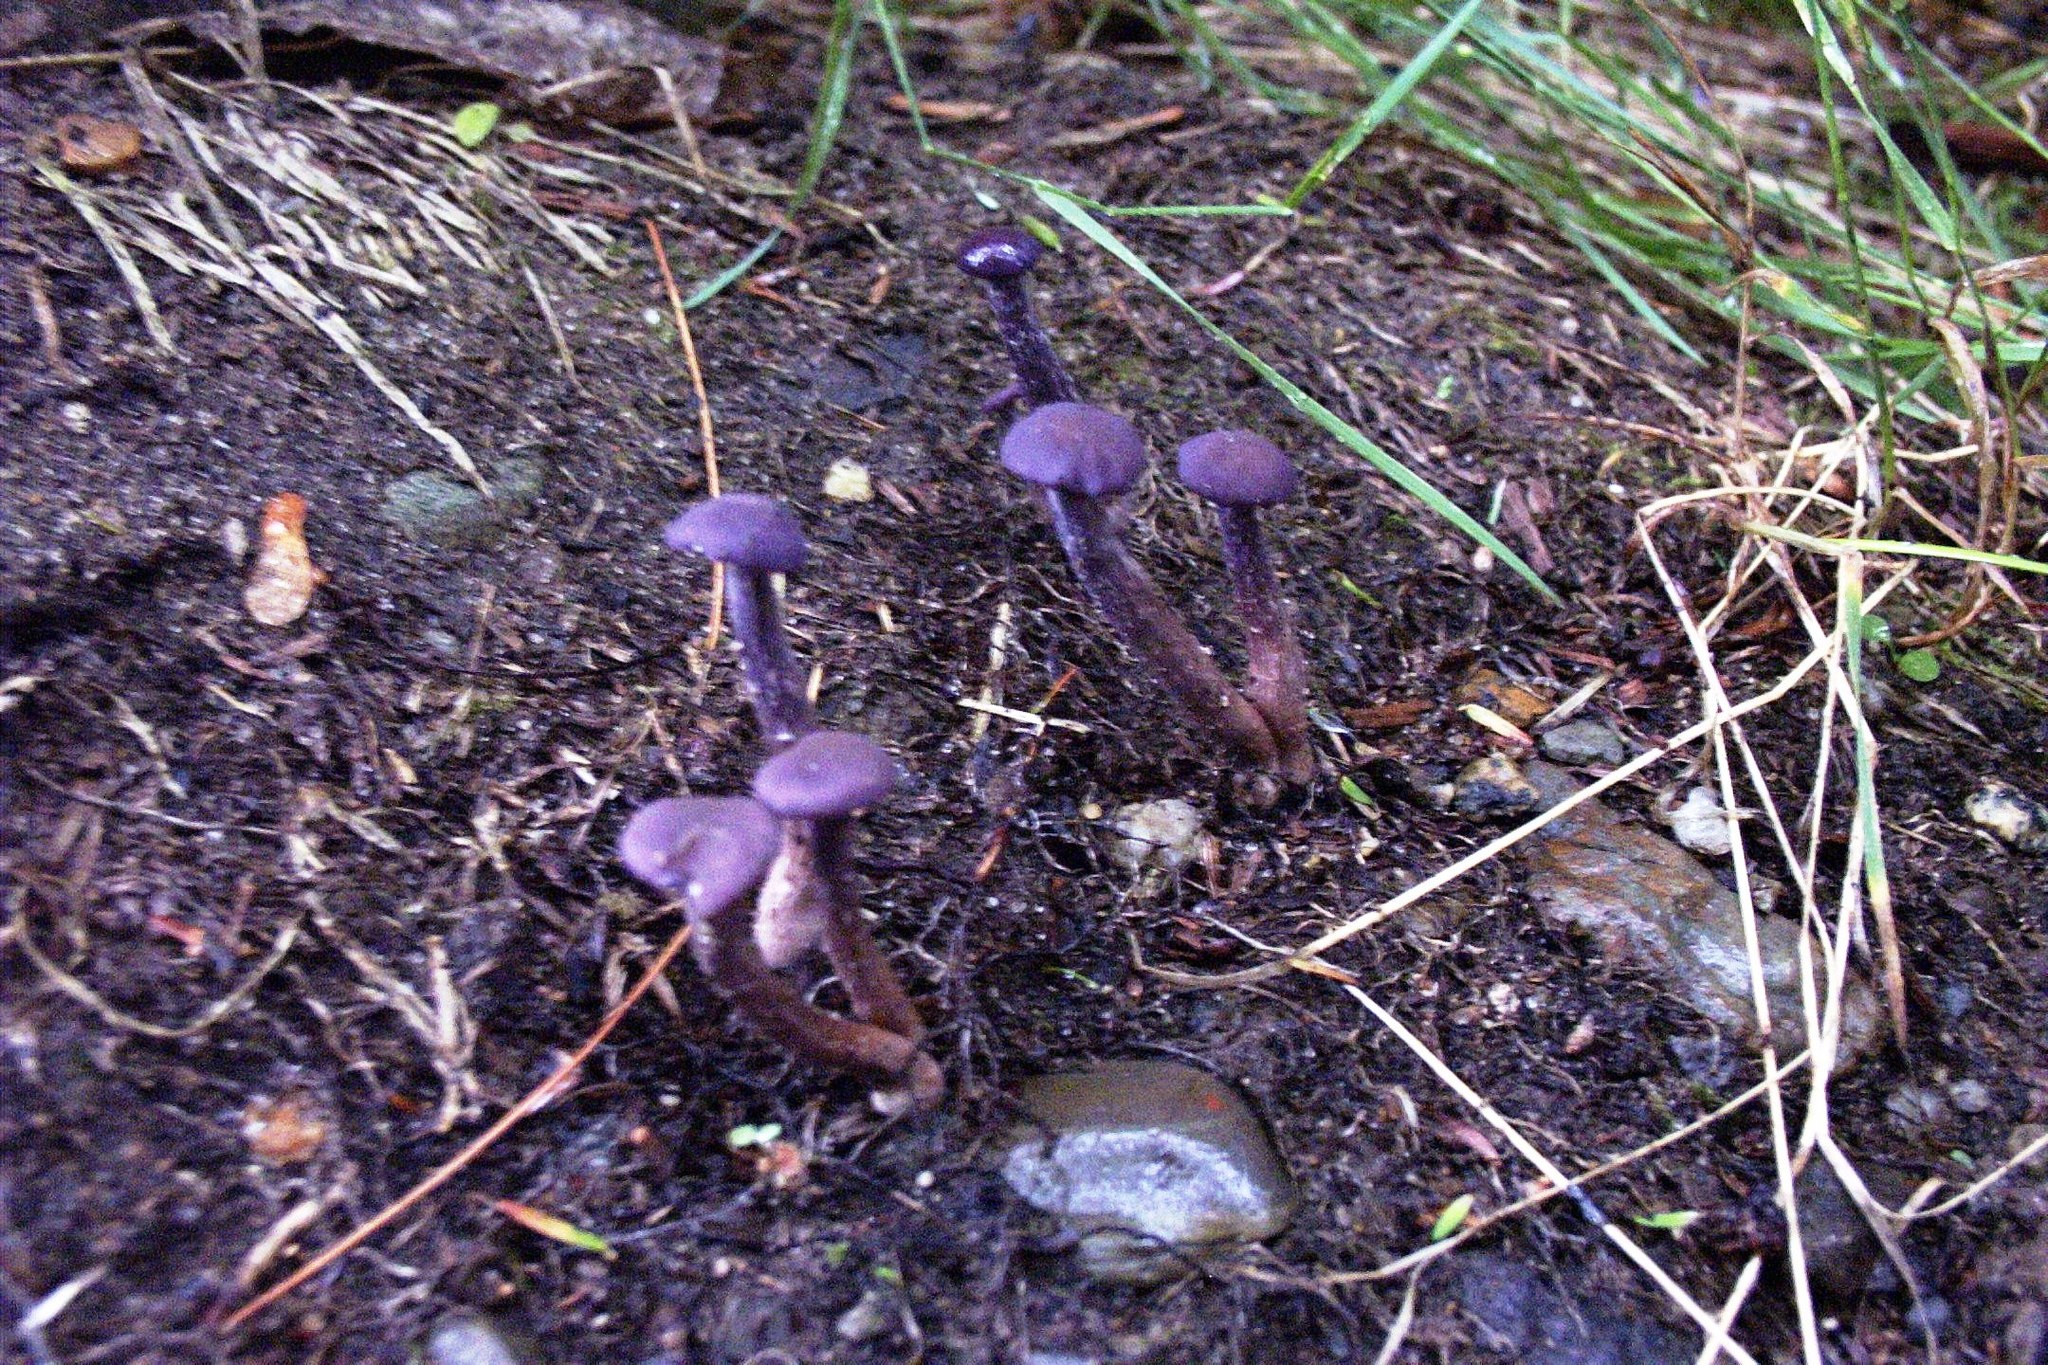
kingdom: Fungi
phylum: Basidiomycota
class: Agaricomycetes
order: Agaricales
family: Hydnangiaceae
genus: Laccaria
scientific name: Laccaria amethystina
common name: Amethyst deceiver
